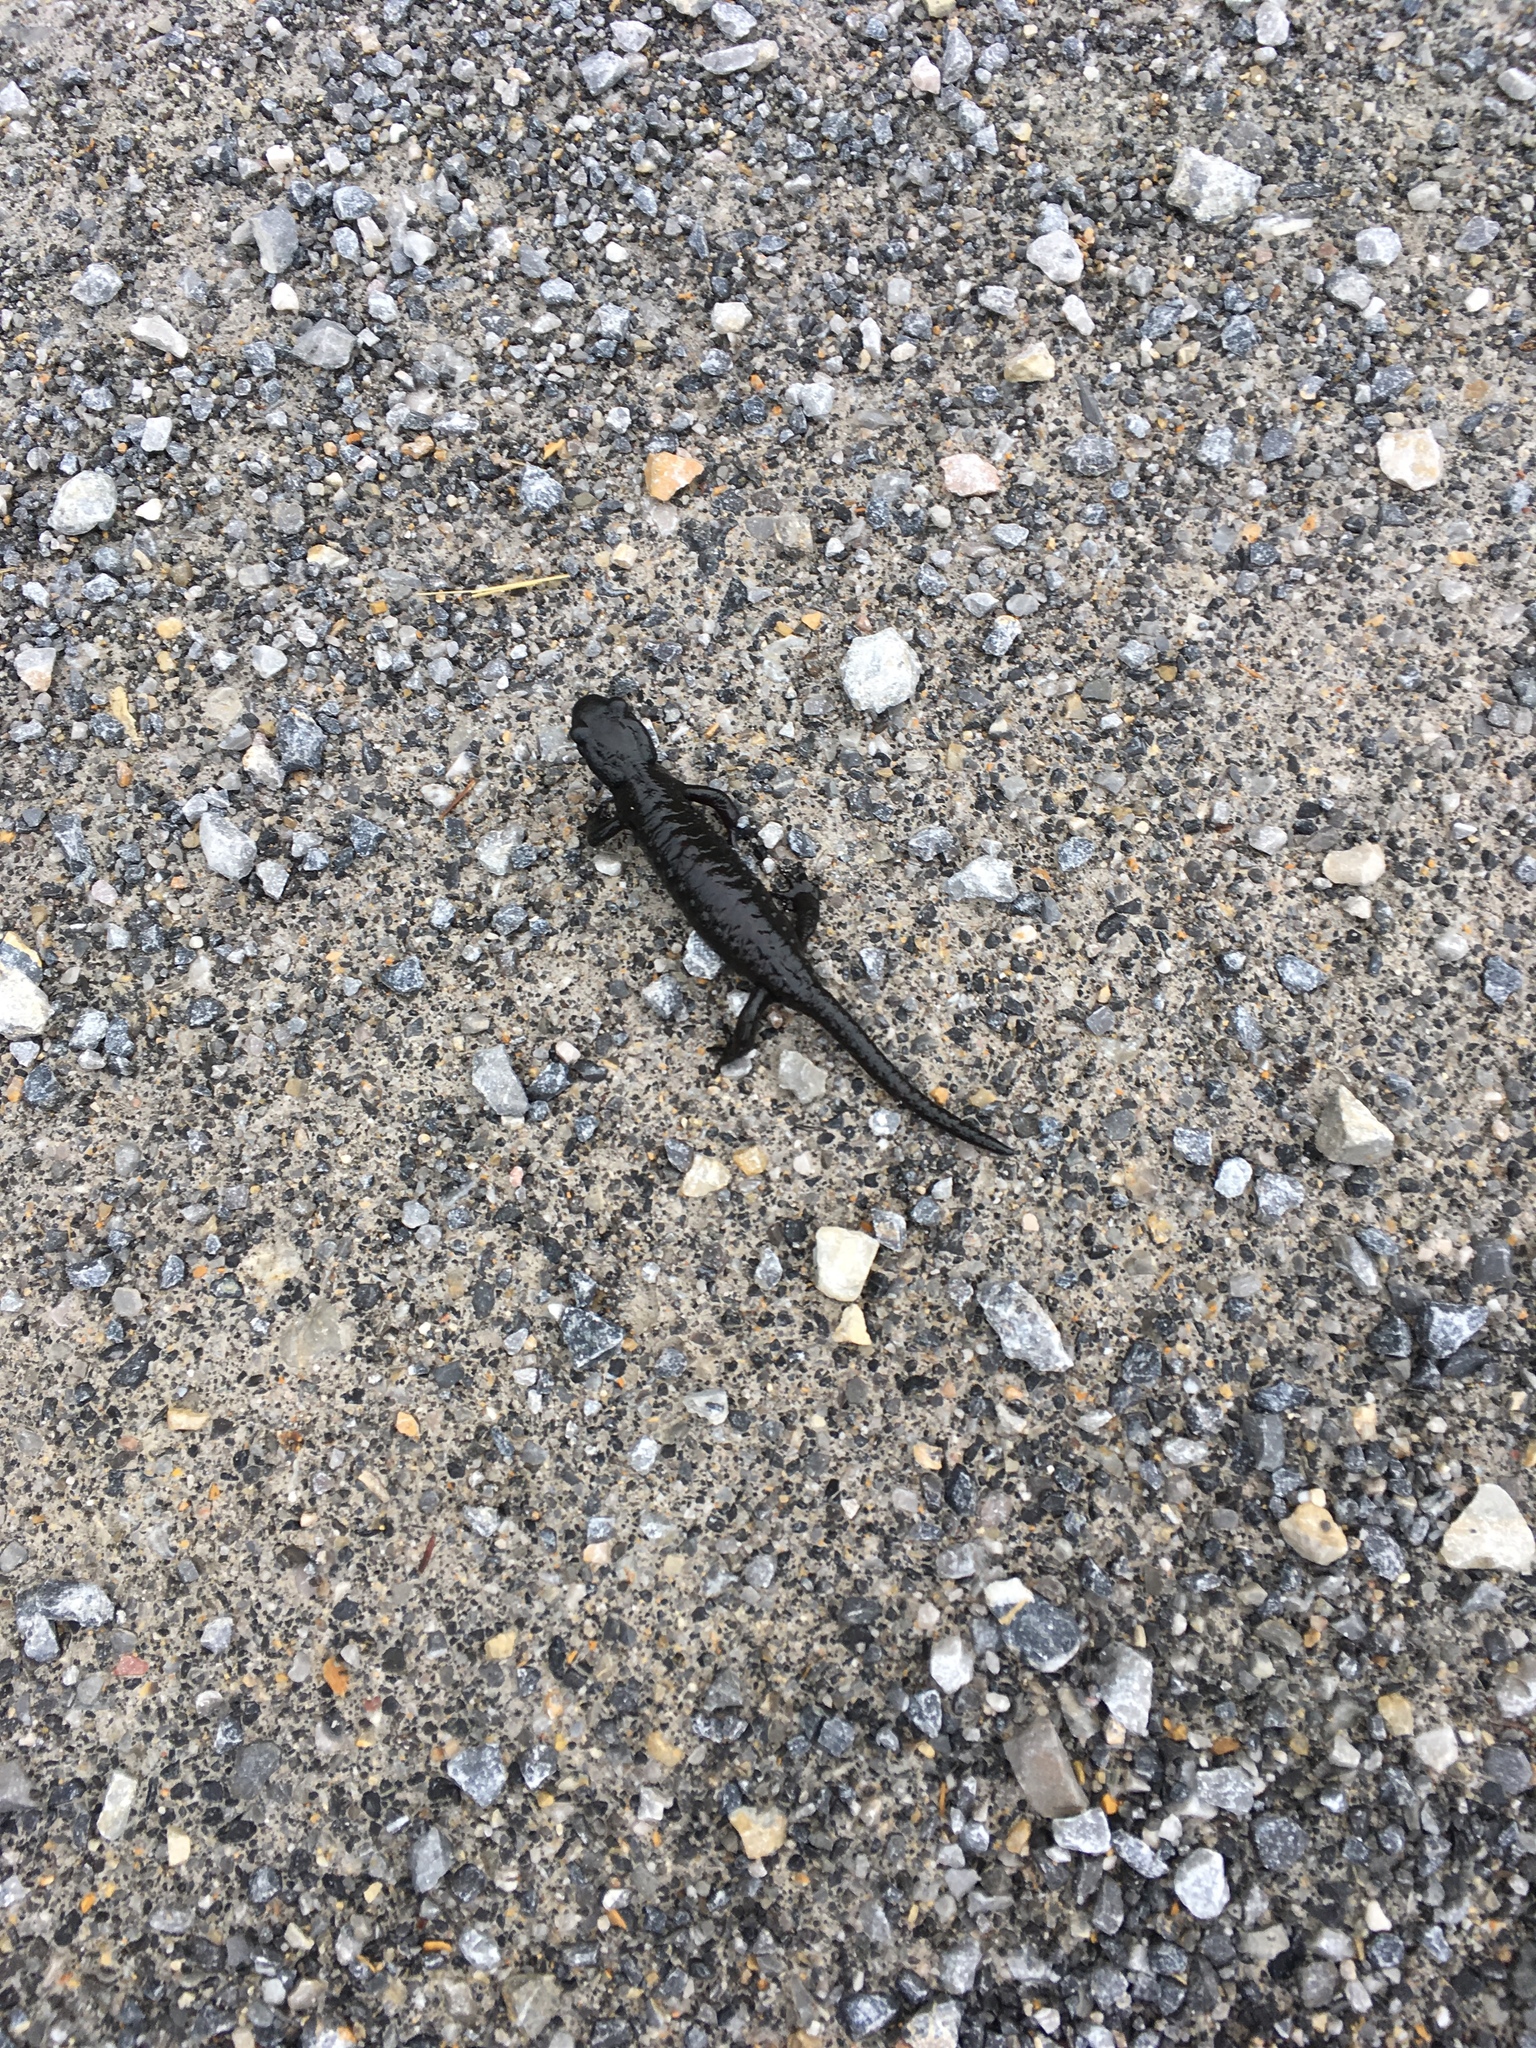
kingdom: Animalia
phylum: Chordata
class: Amphibia
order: Caudata
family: Salamandridae
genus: Salamandra
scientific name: Salamandra atra
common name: Alpine salamander
